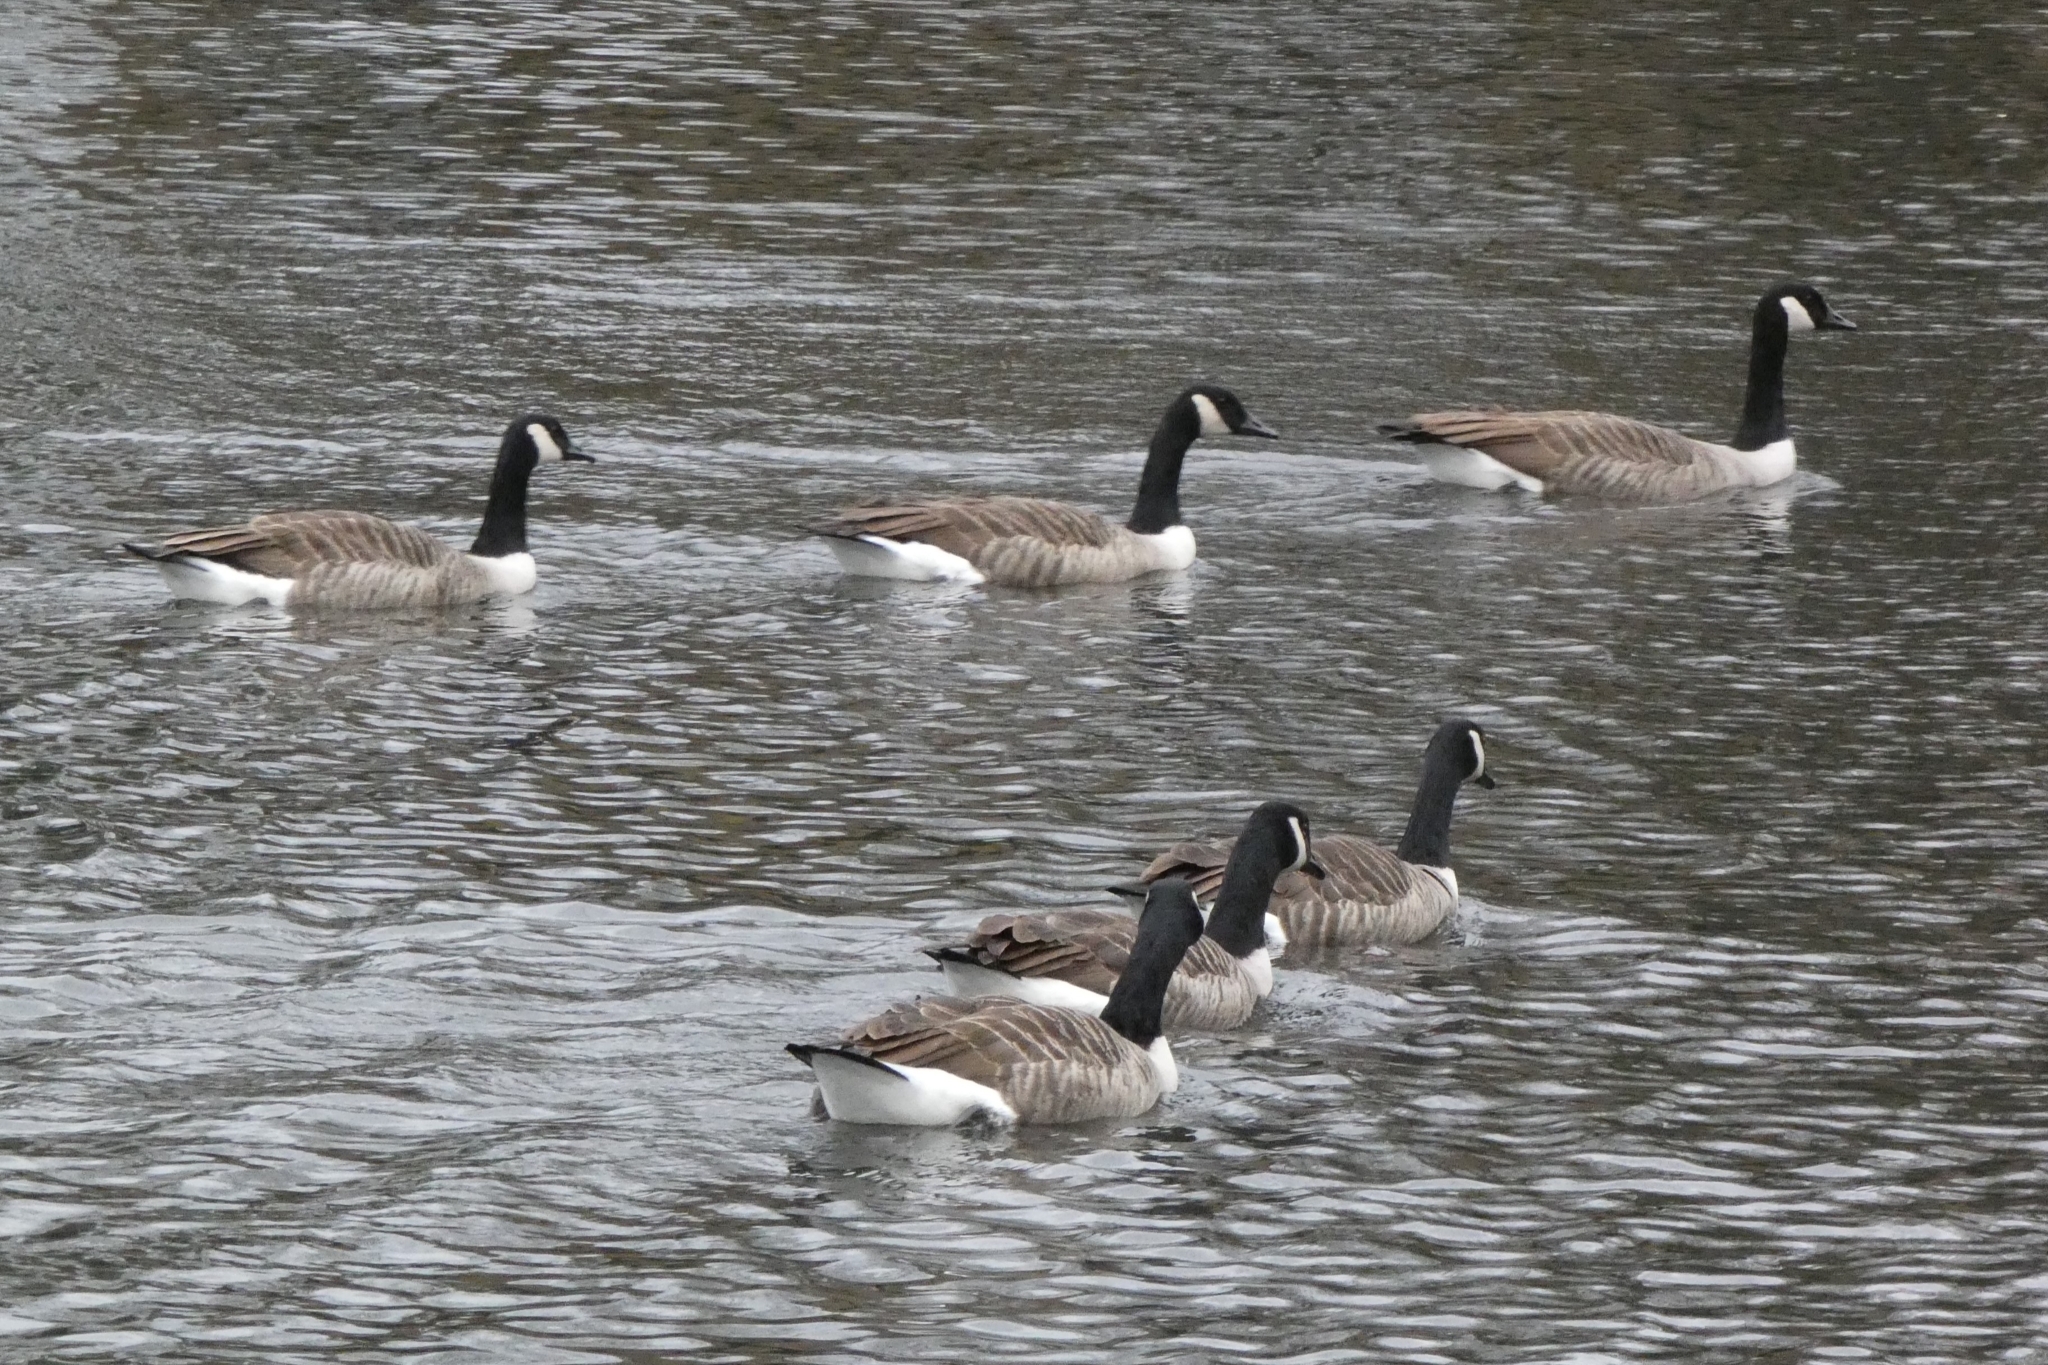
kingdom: Animalia
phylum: Chordata
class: Aves
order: Anseriformes
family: Anatidae
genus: Branta
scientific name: Branta canadensis
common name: Canada goose
